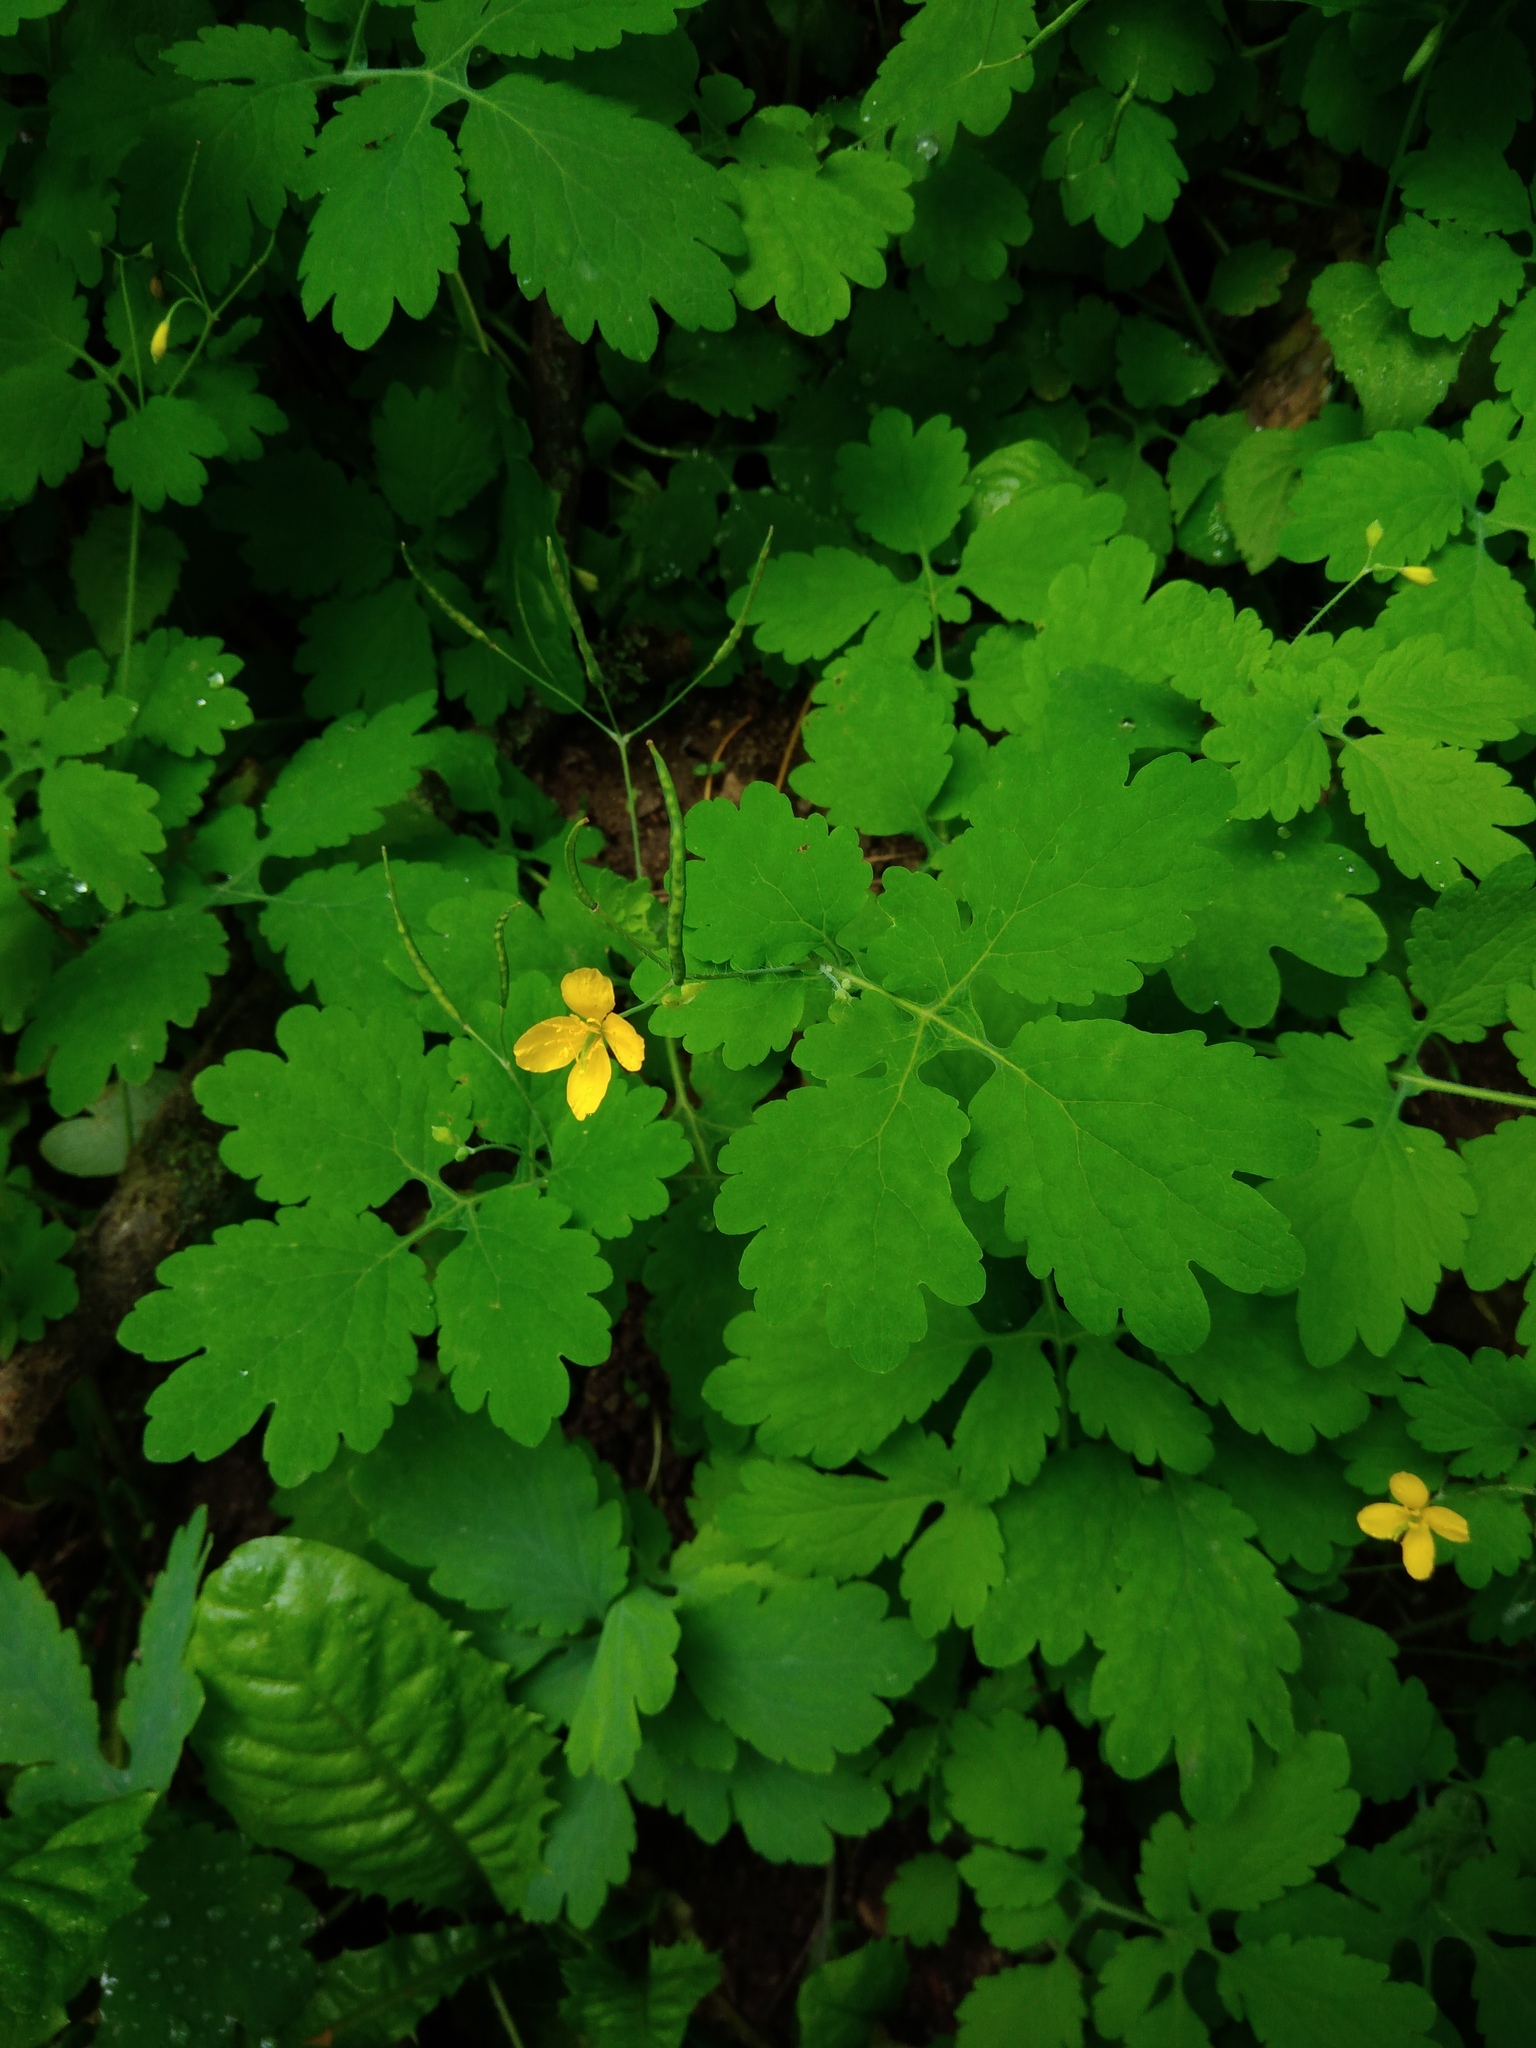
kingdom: Plantae
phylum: Tracheophyta
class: Magnoliopsida
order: Ranunculales
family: Papaveraceae
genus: Chelidonium
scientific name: Chelidonium majus
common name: Greater celandine
